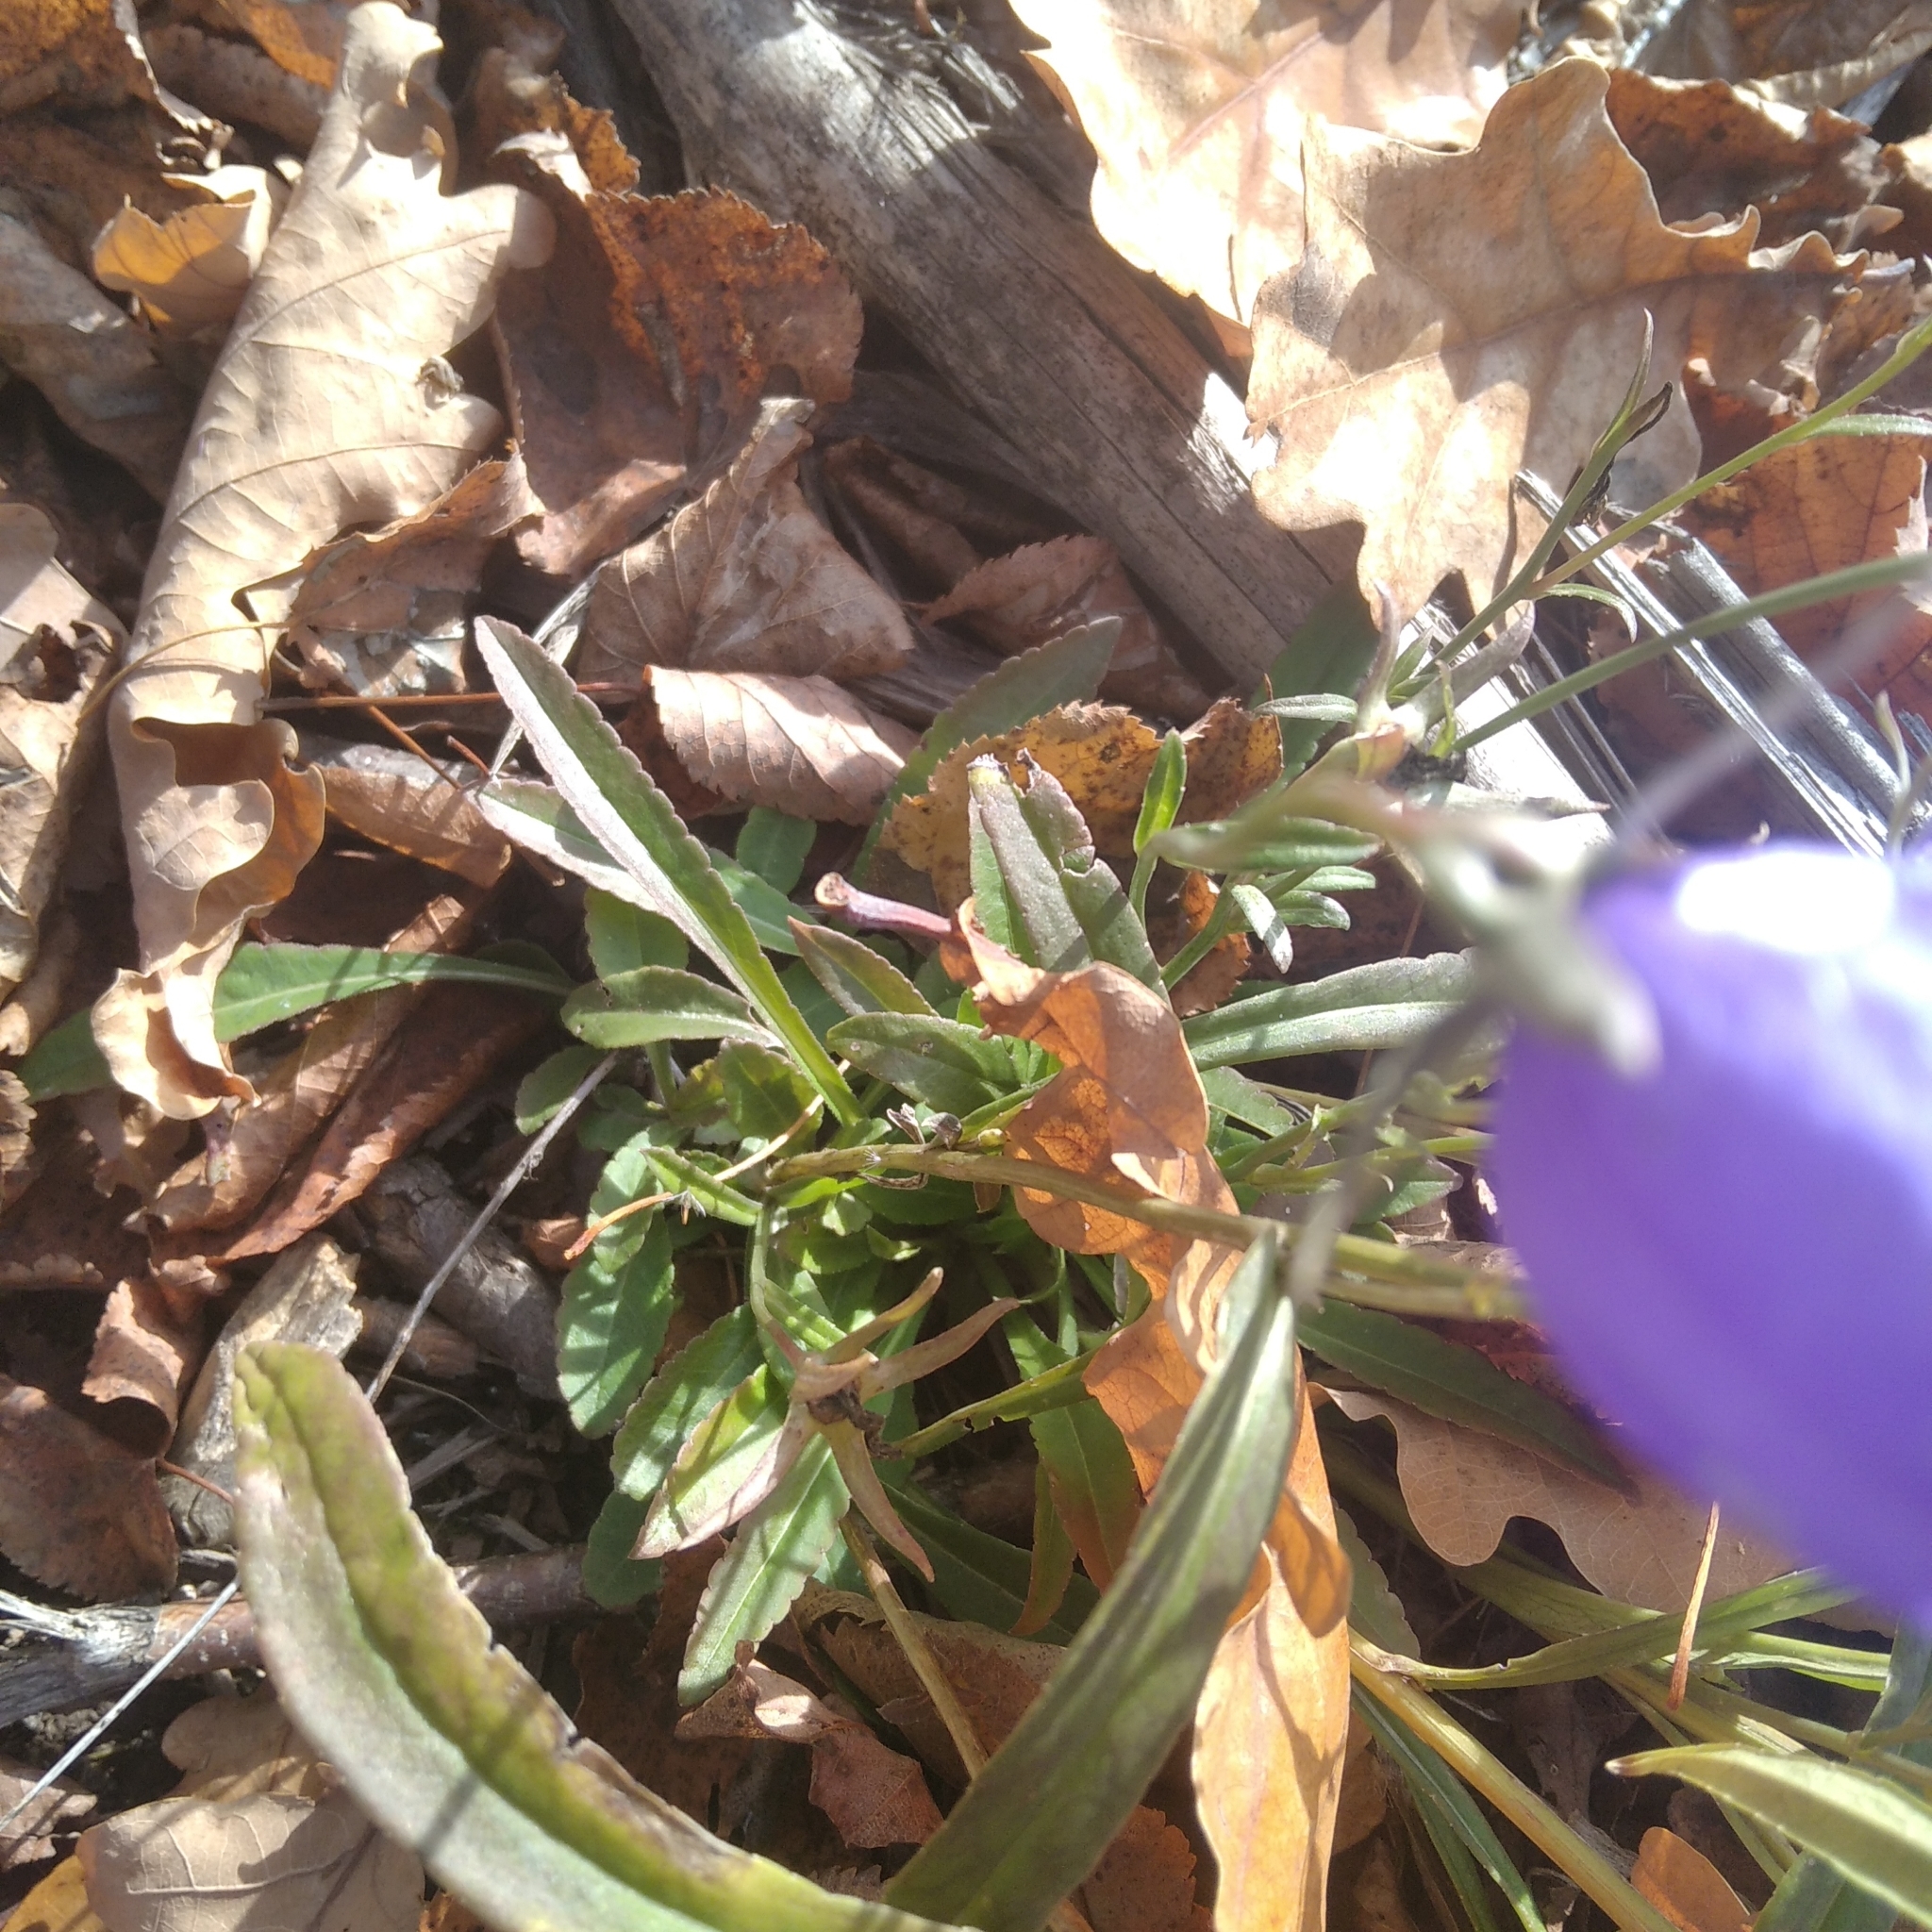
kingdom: Plantae
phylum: Tracheophyta
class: Magnoliopsida
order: Asterales
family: Campanulaceae
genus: Campanula
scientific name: Campanula persicifolia
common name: Peach-leaved bellflower
